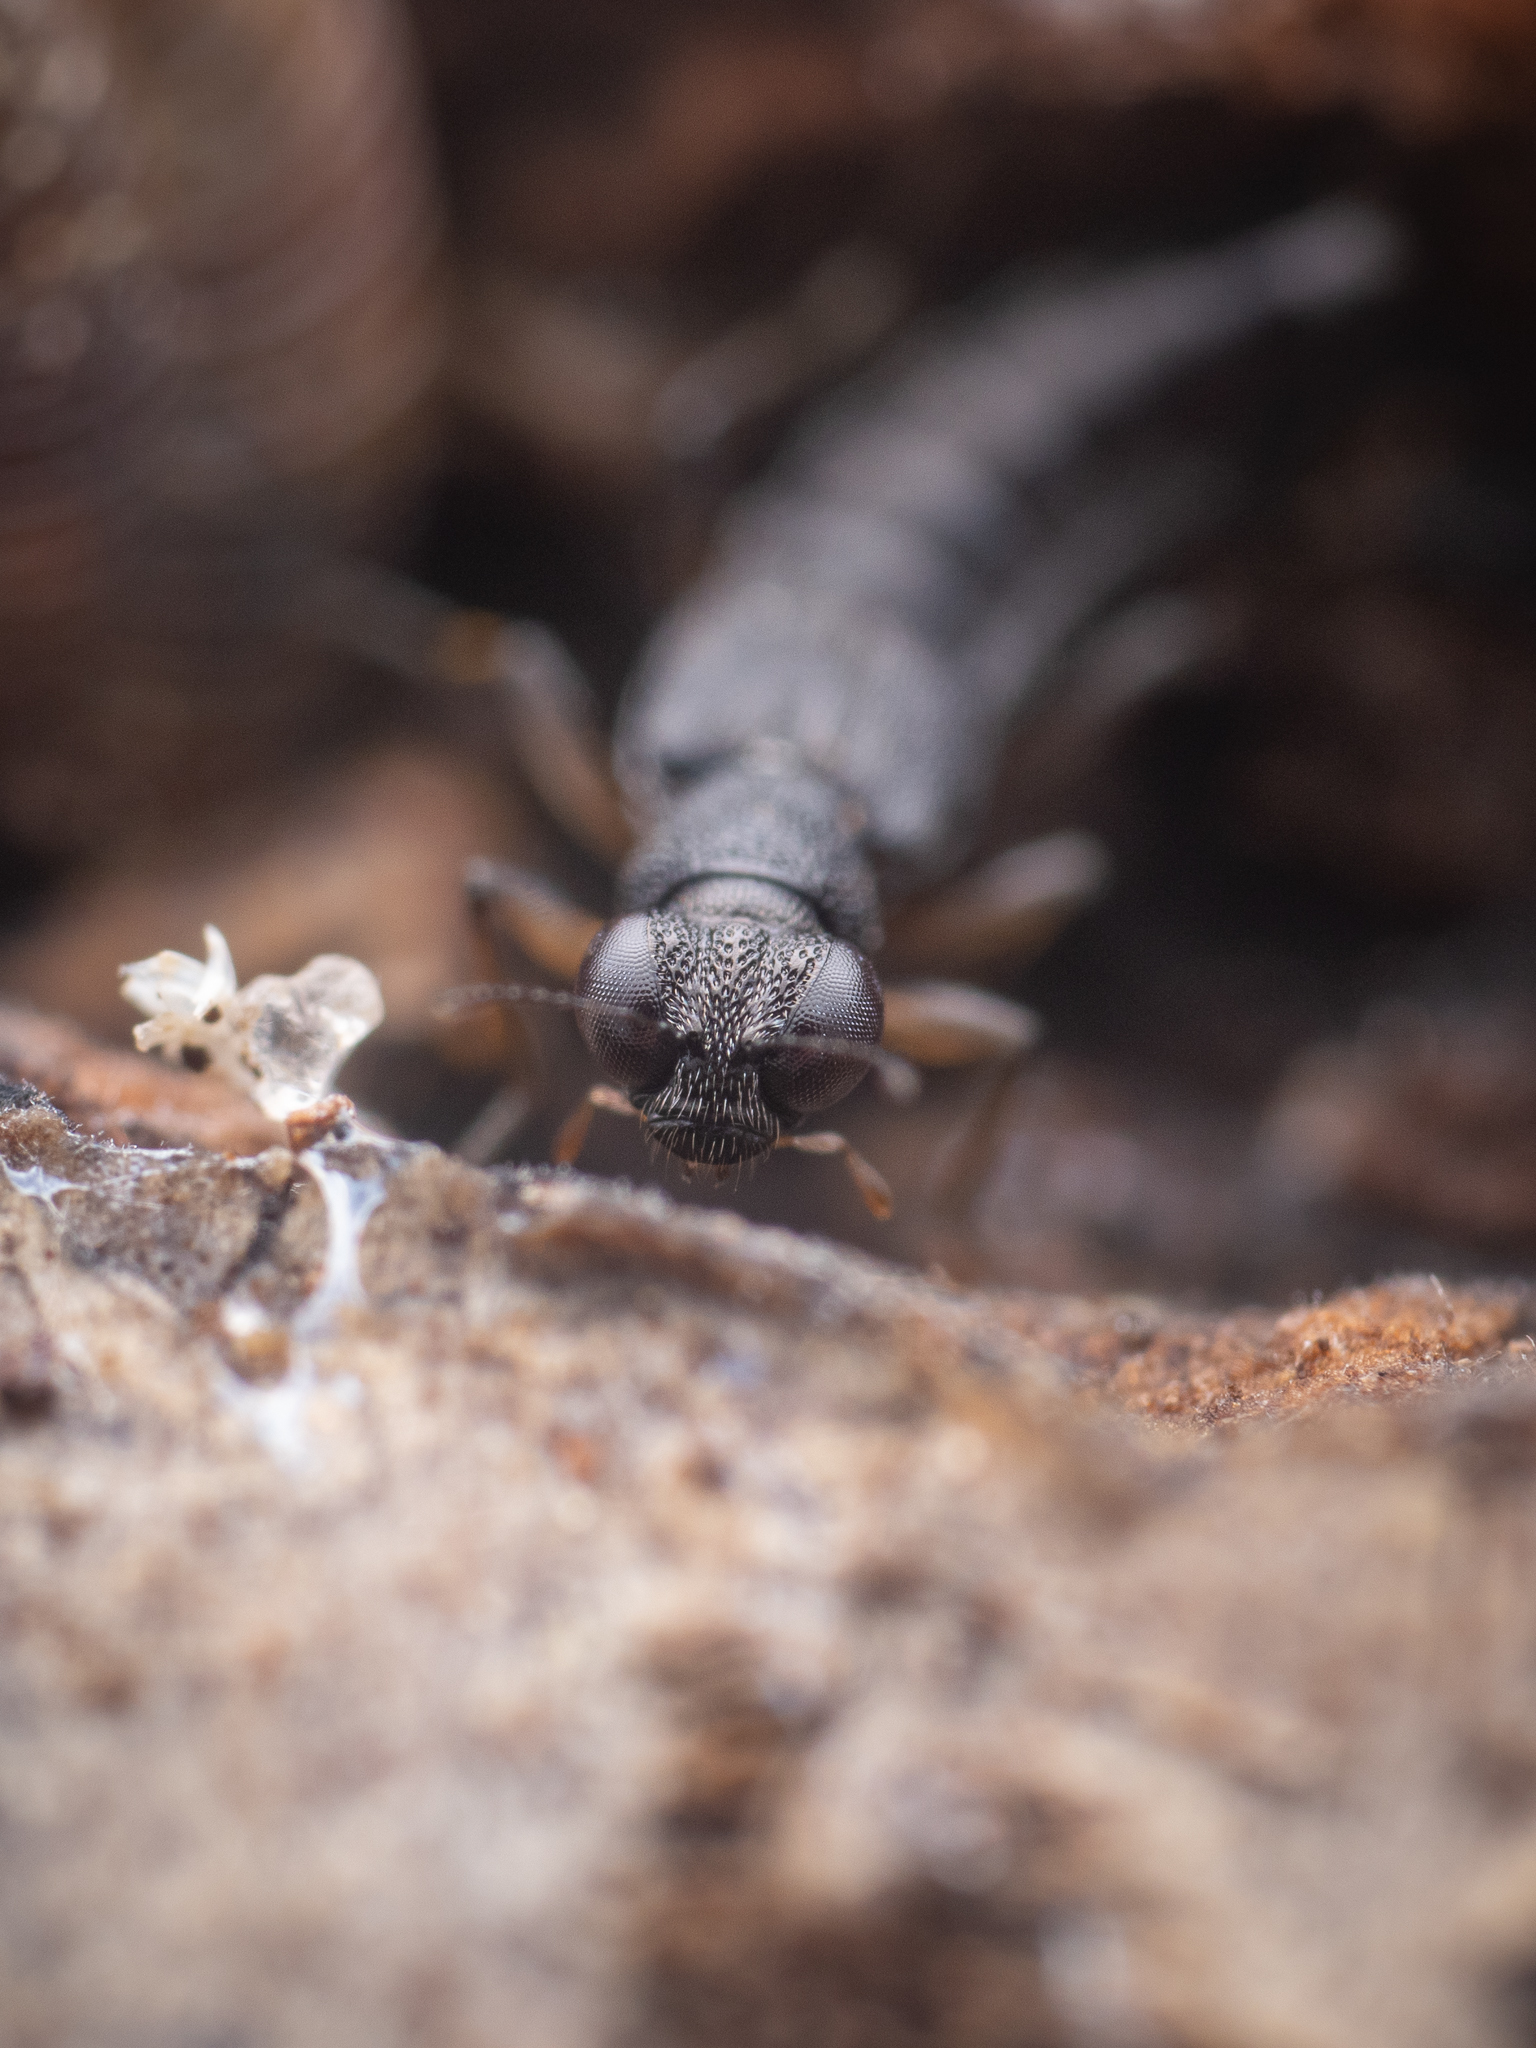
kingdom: Animalia
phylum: Arthropoda
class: Insecta
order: Coleoptera
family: Staphylinidae
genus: Stenus
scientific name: Stenus clavicornis
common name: Staph beetle
